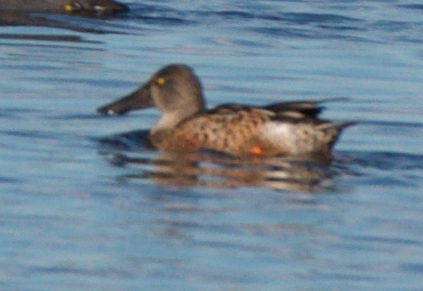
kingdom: Animalia
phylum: Chordata
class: Aves
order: Anseriformes
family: Anatidae
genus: Spatula
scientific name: Spatula clypeata
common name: Northern shoveler
